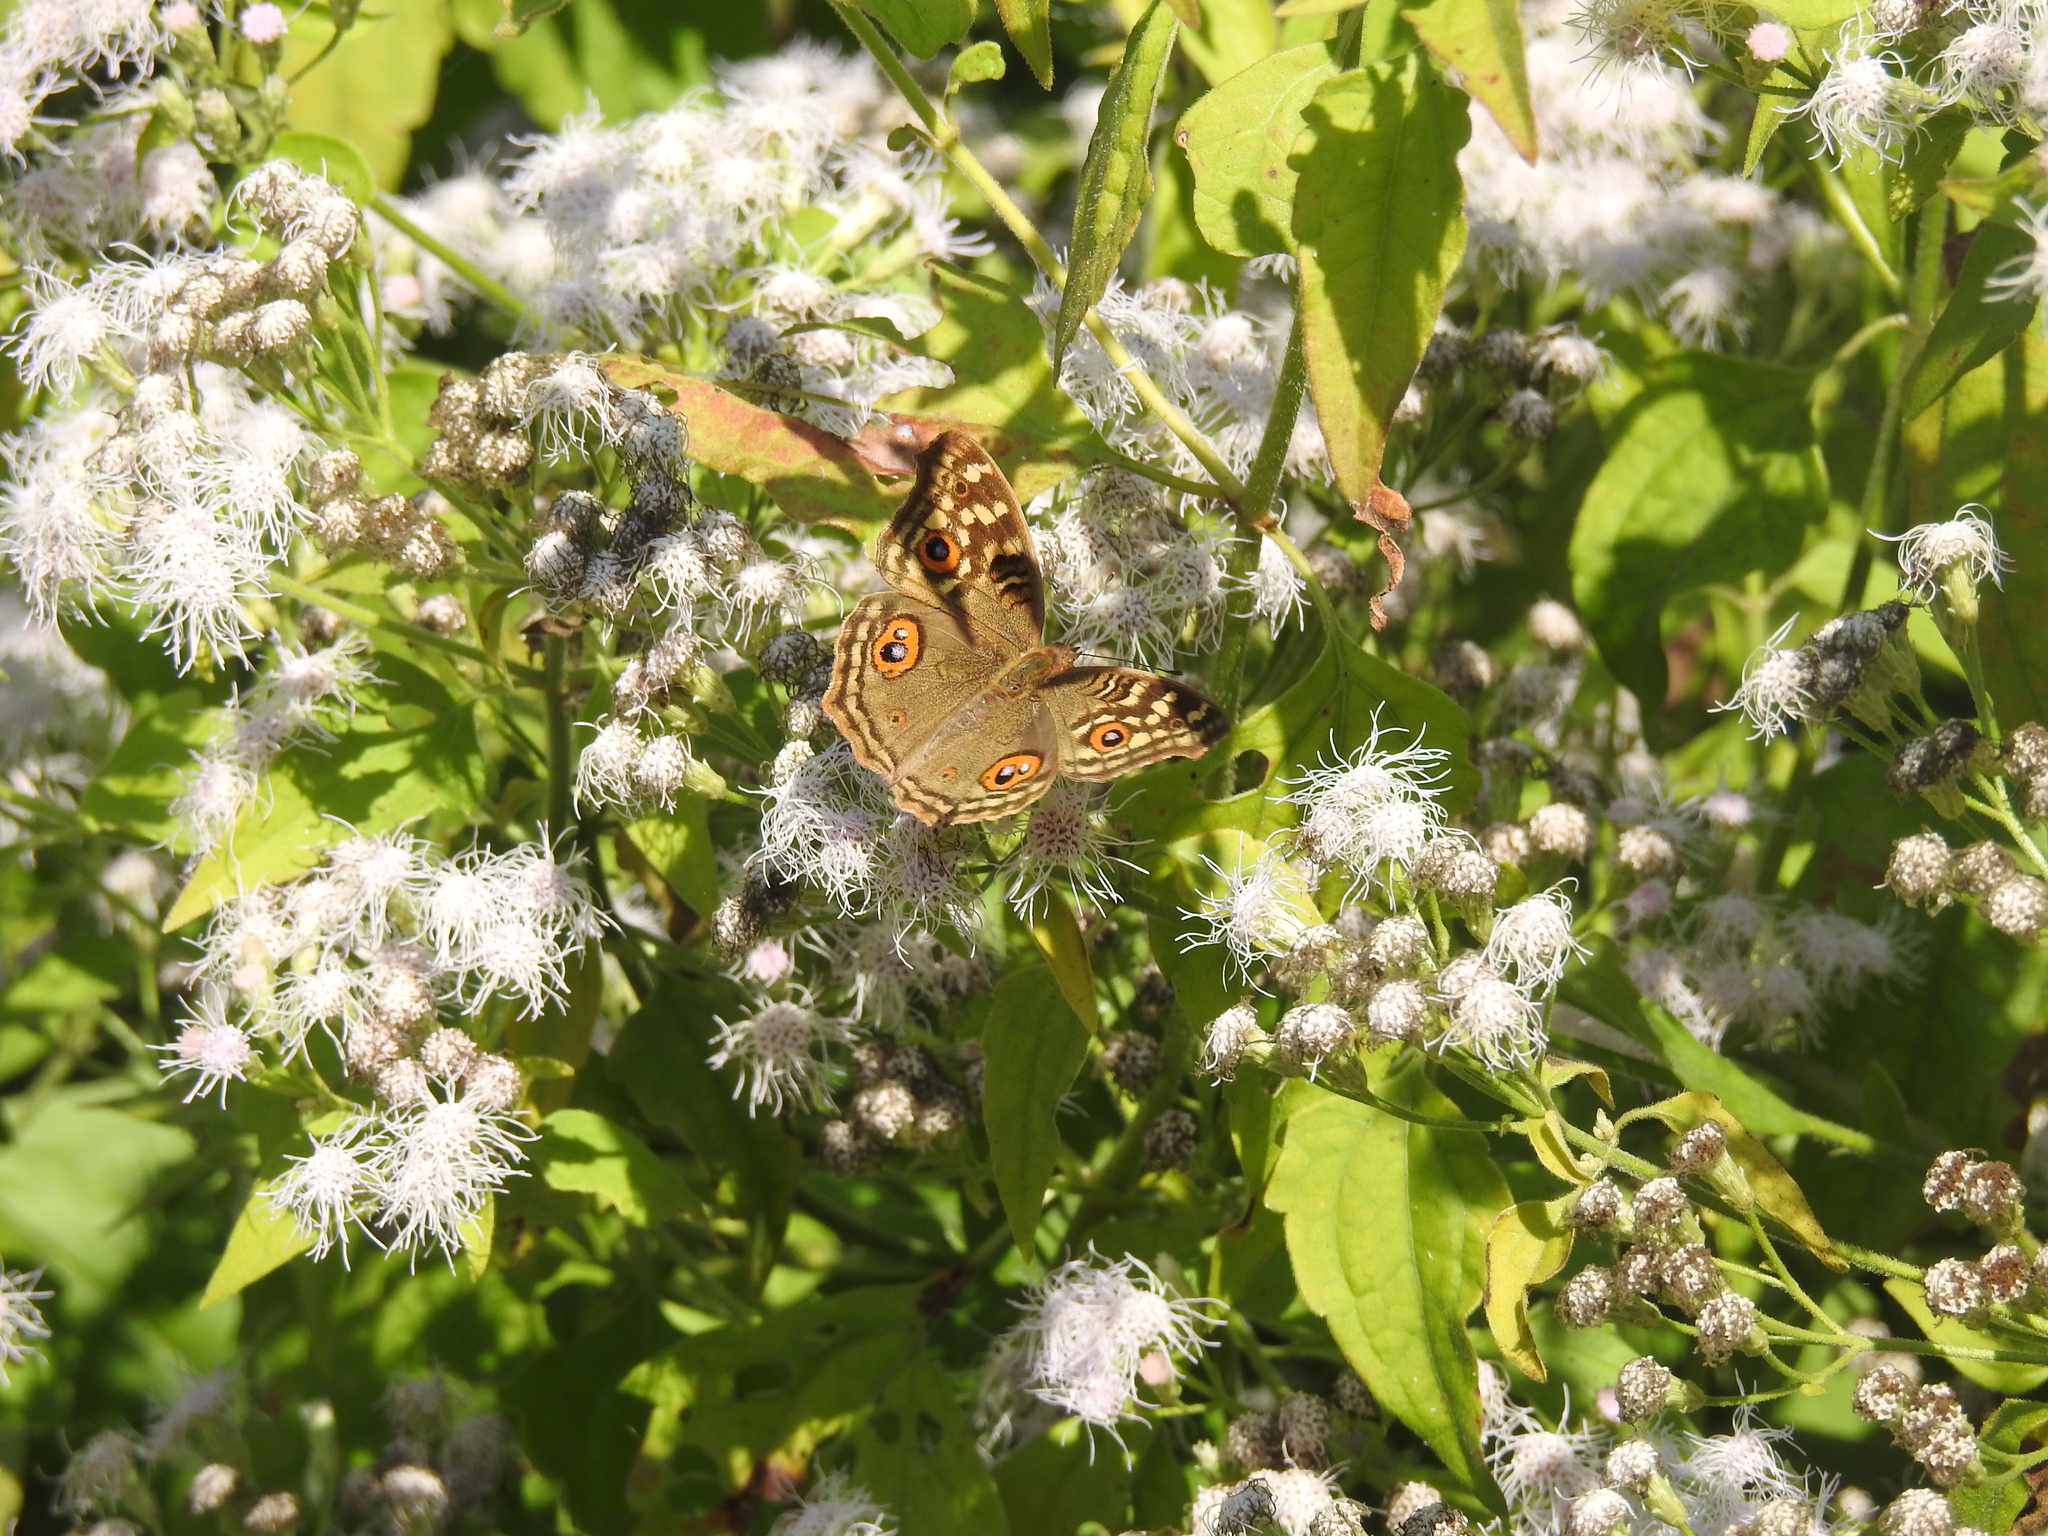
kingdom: Animalia
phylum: Arthropoda
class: Insecta
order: Lepidoptera
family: Nymphalidae
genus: Junonia
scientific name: Junonia lemonias
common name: Lemon pansy
